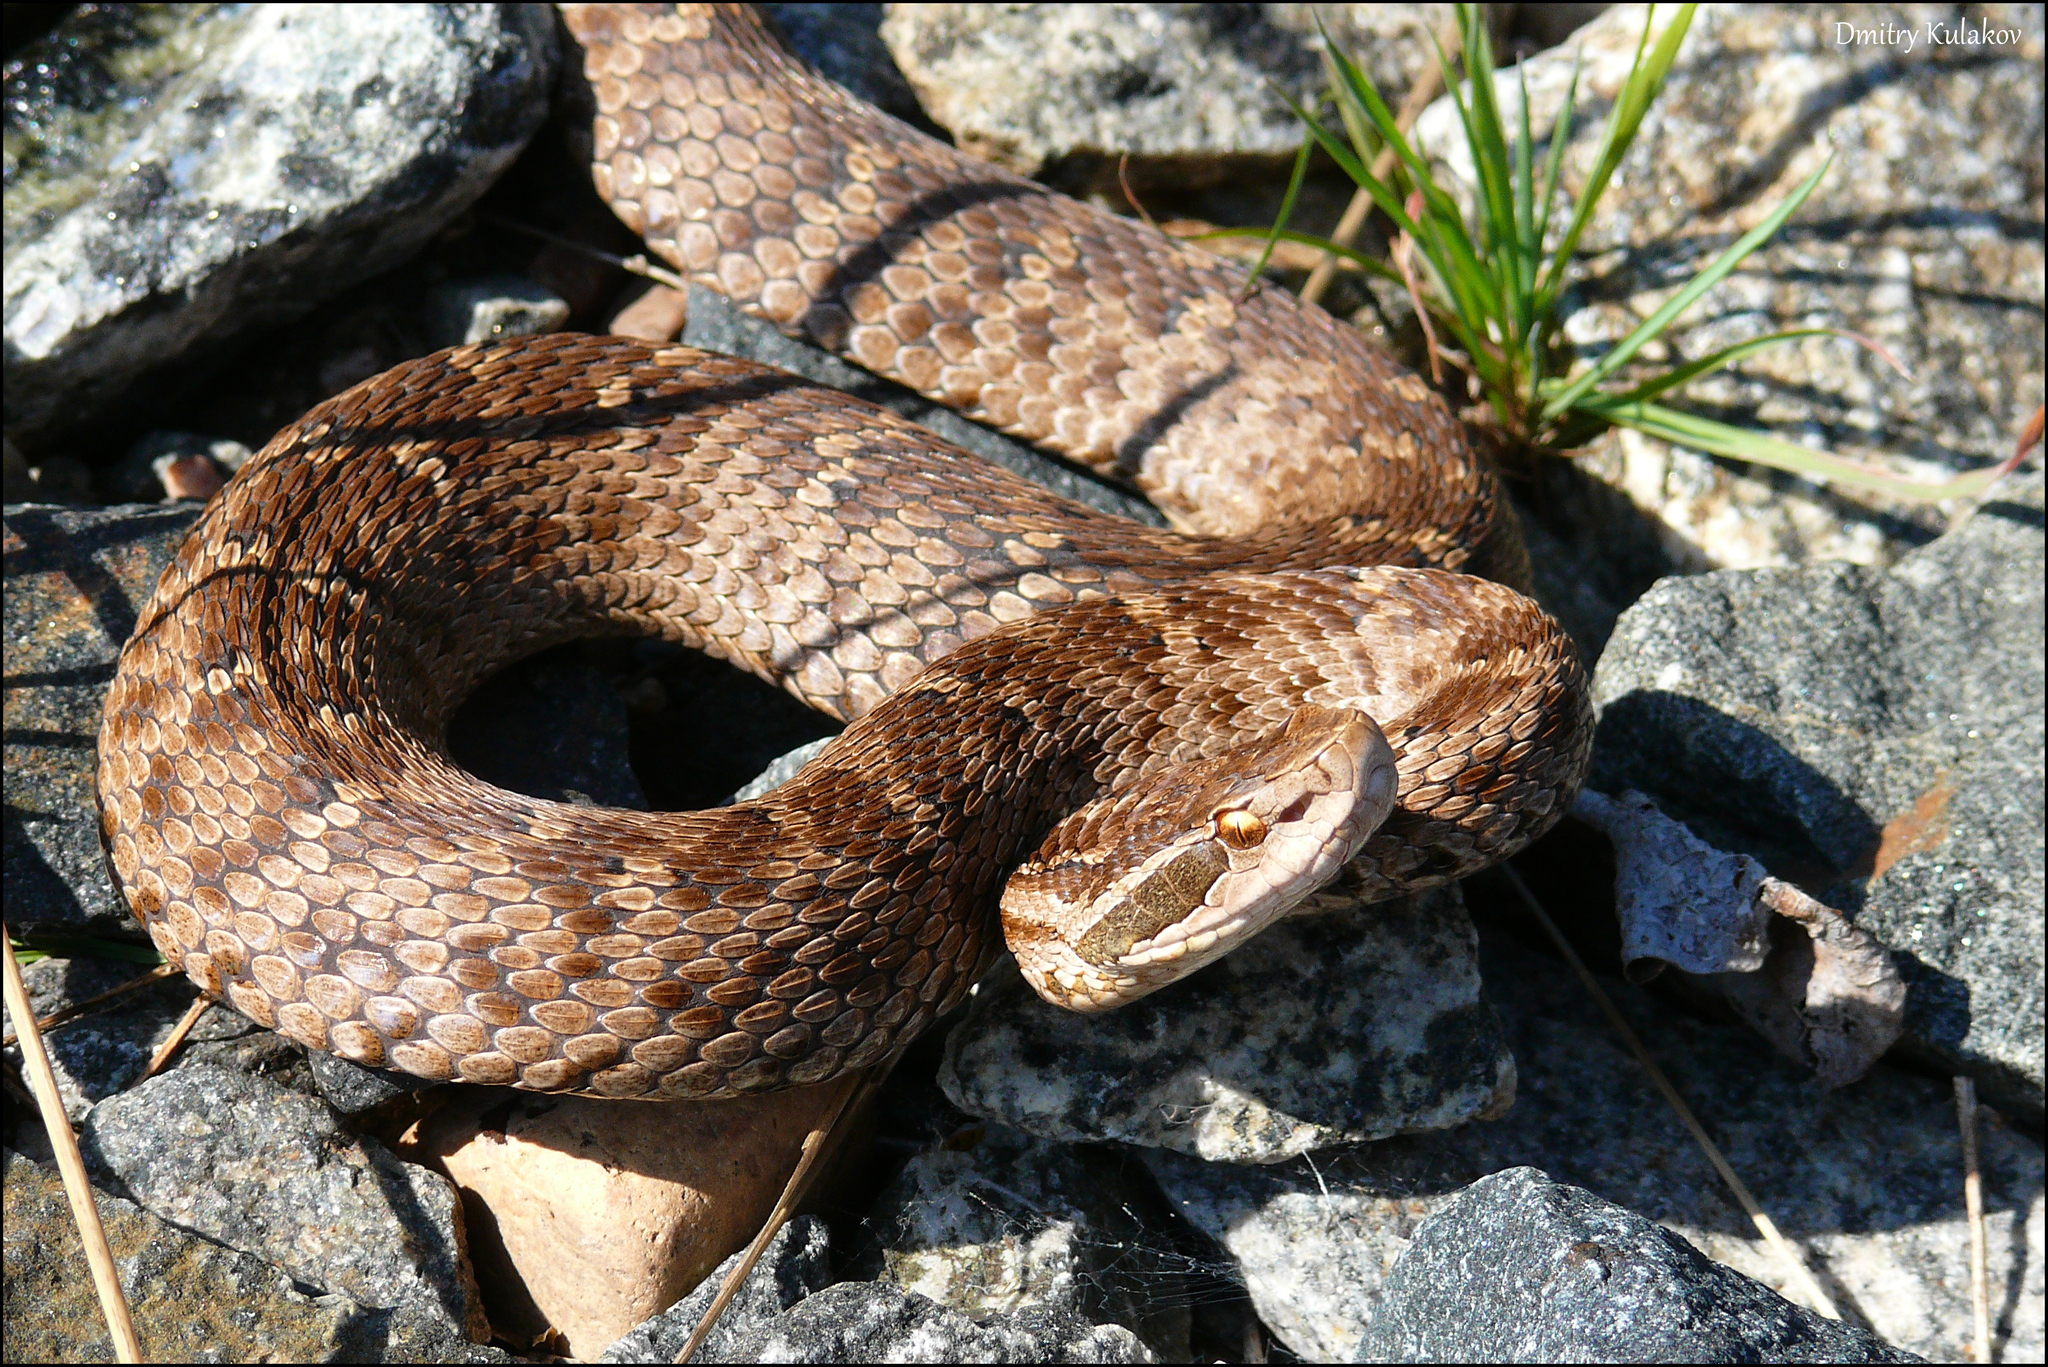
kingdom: Animalia
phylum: Chordata
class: Squamata
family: Viperidae
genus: Gloydius
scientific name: Gloydius halys
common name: Halys pit viper
